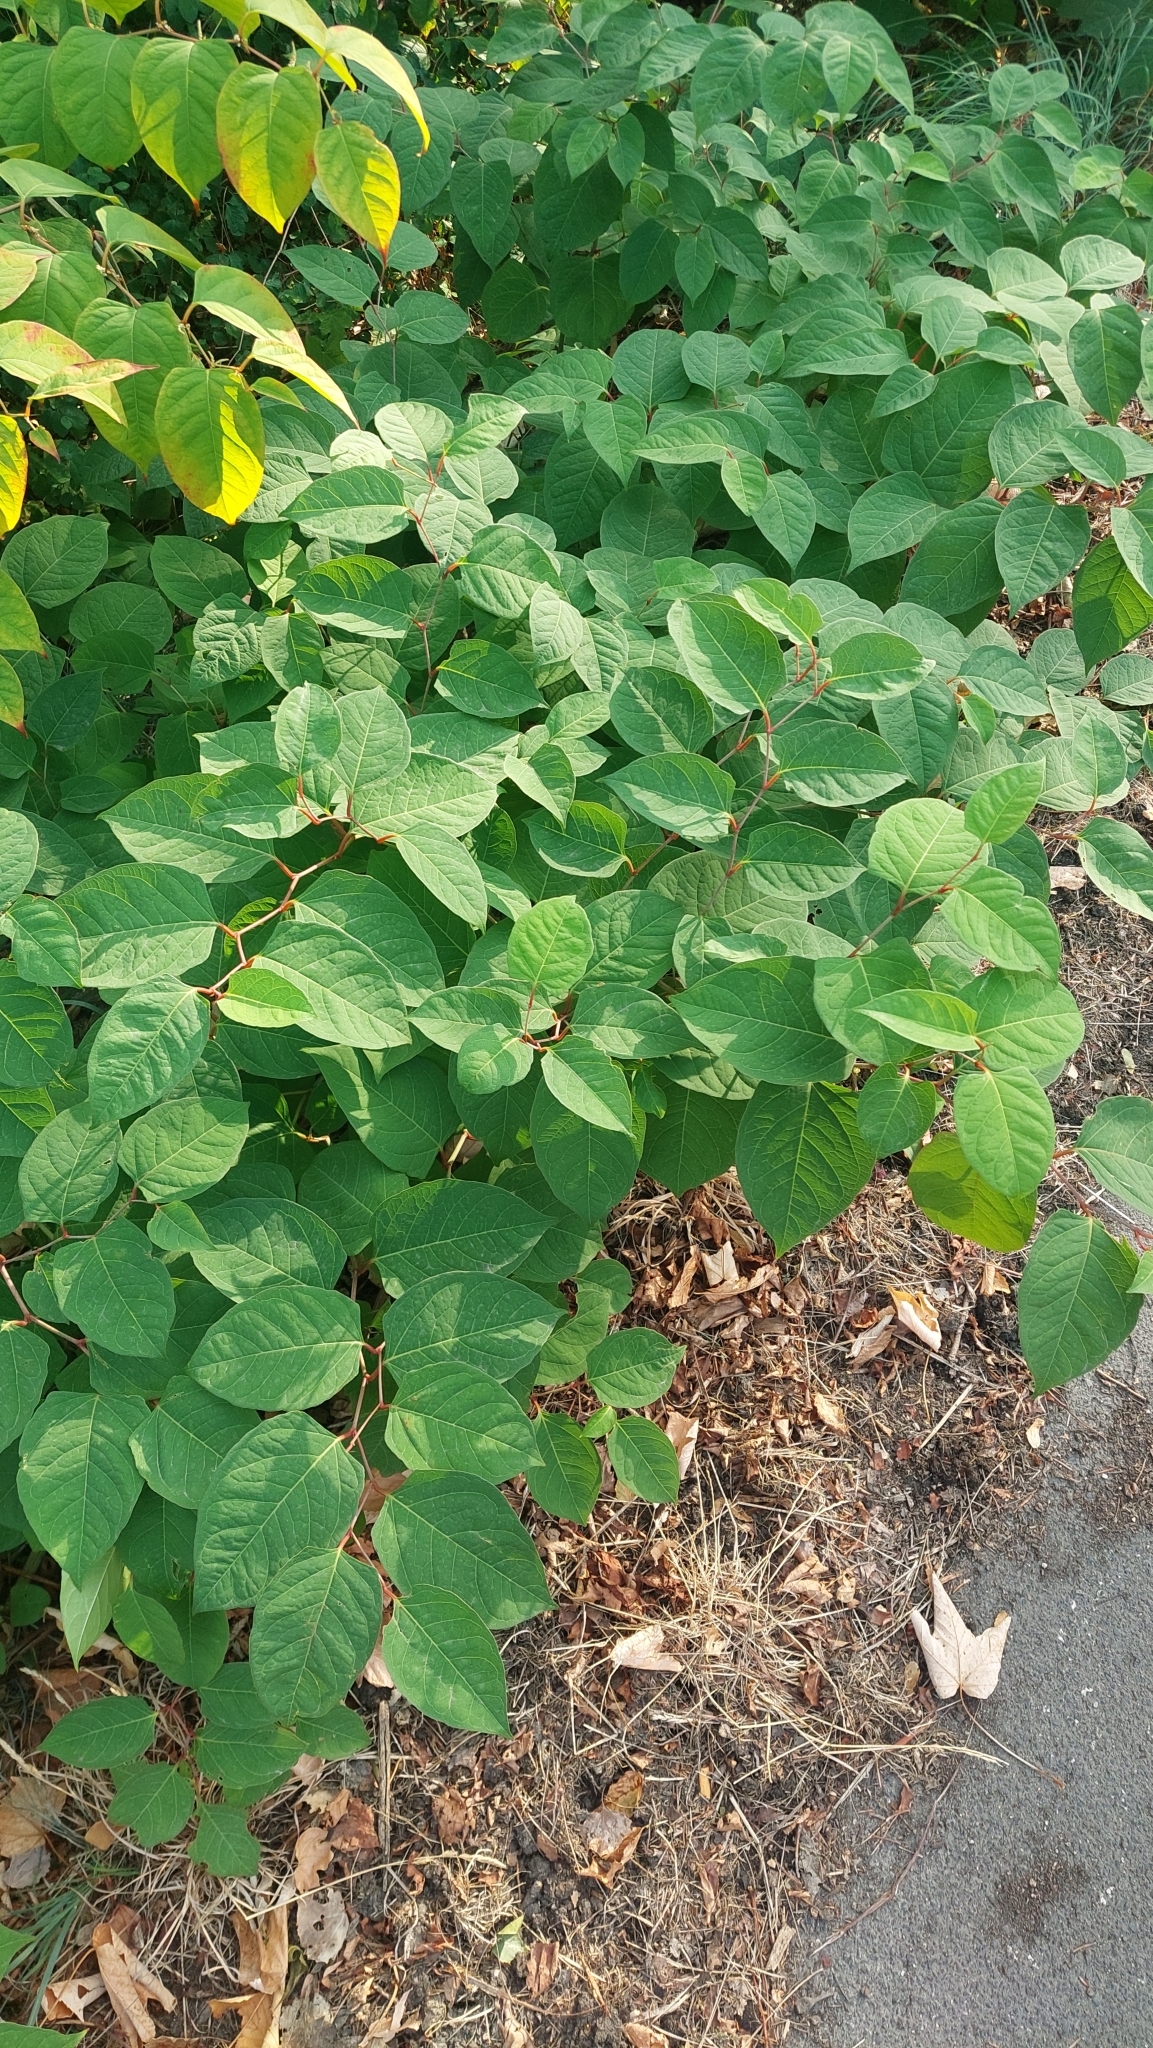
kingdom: Plantae
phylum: Tracheophyta
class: Magnoliopsida
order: Caryophyllales
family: Polygonaceae
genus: Reynoutria
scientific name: Reynoutria japonica
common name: Japanese knotweed
